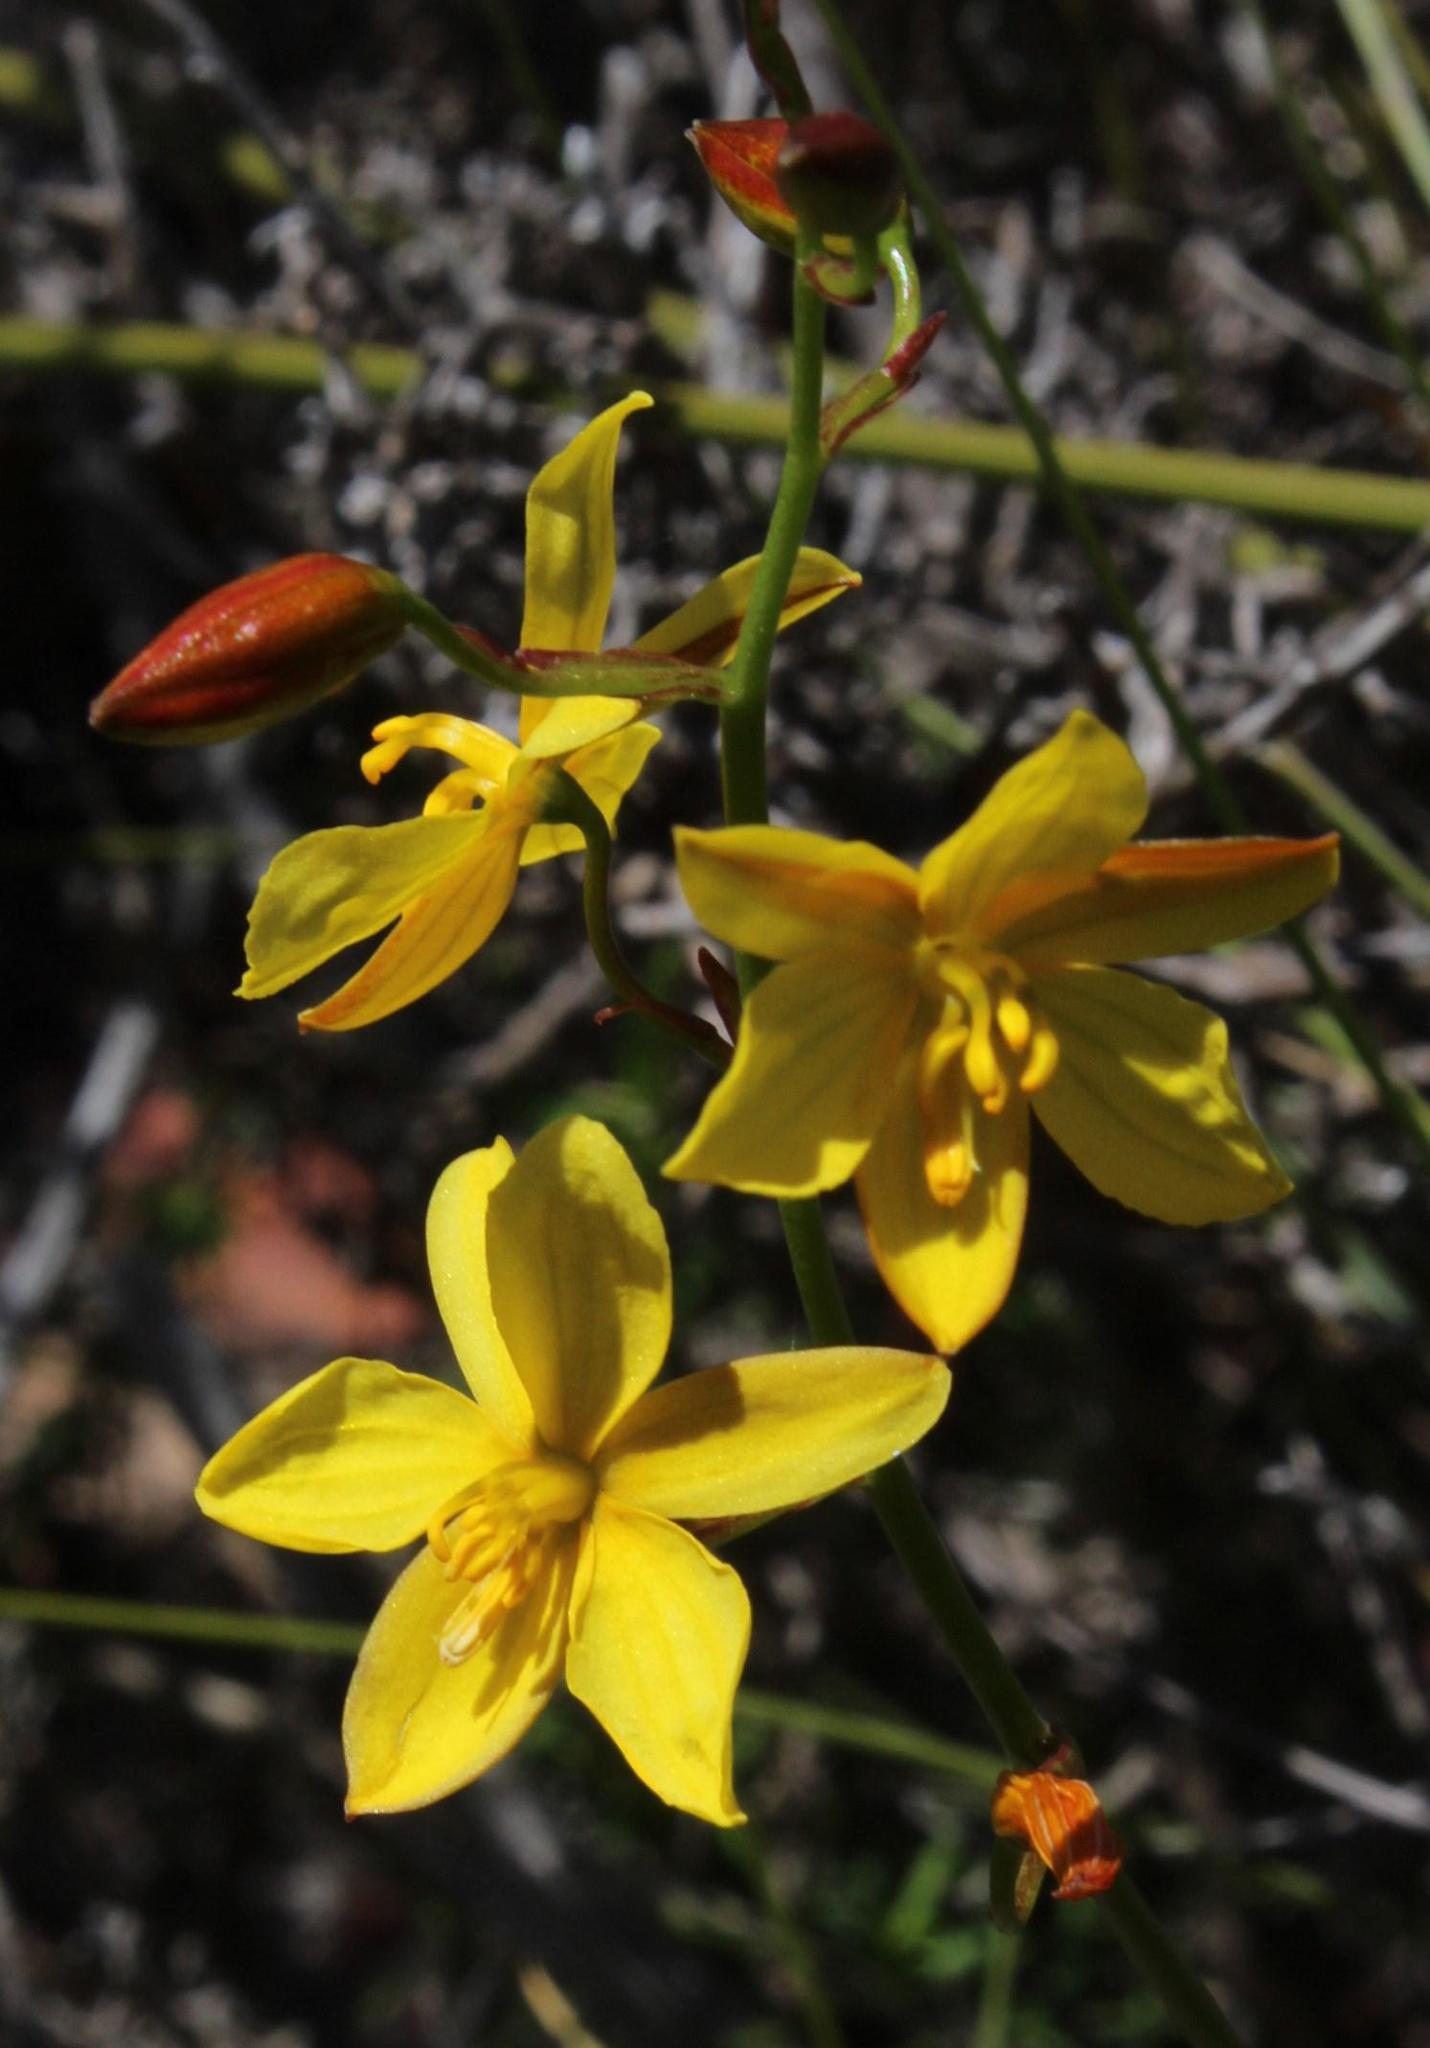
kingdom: Plantae
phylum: Tracheophyta
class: Liliopsida
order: Asparagales
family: Tecophilaeaceae
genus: Cyanella
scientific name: Cyanella lutea
